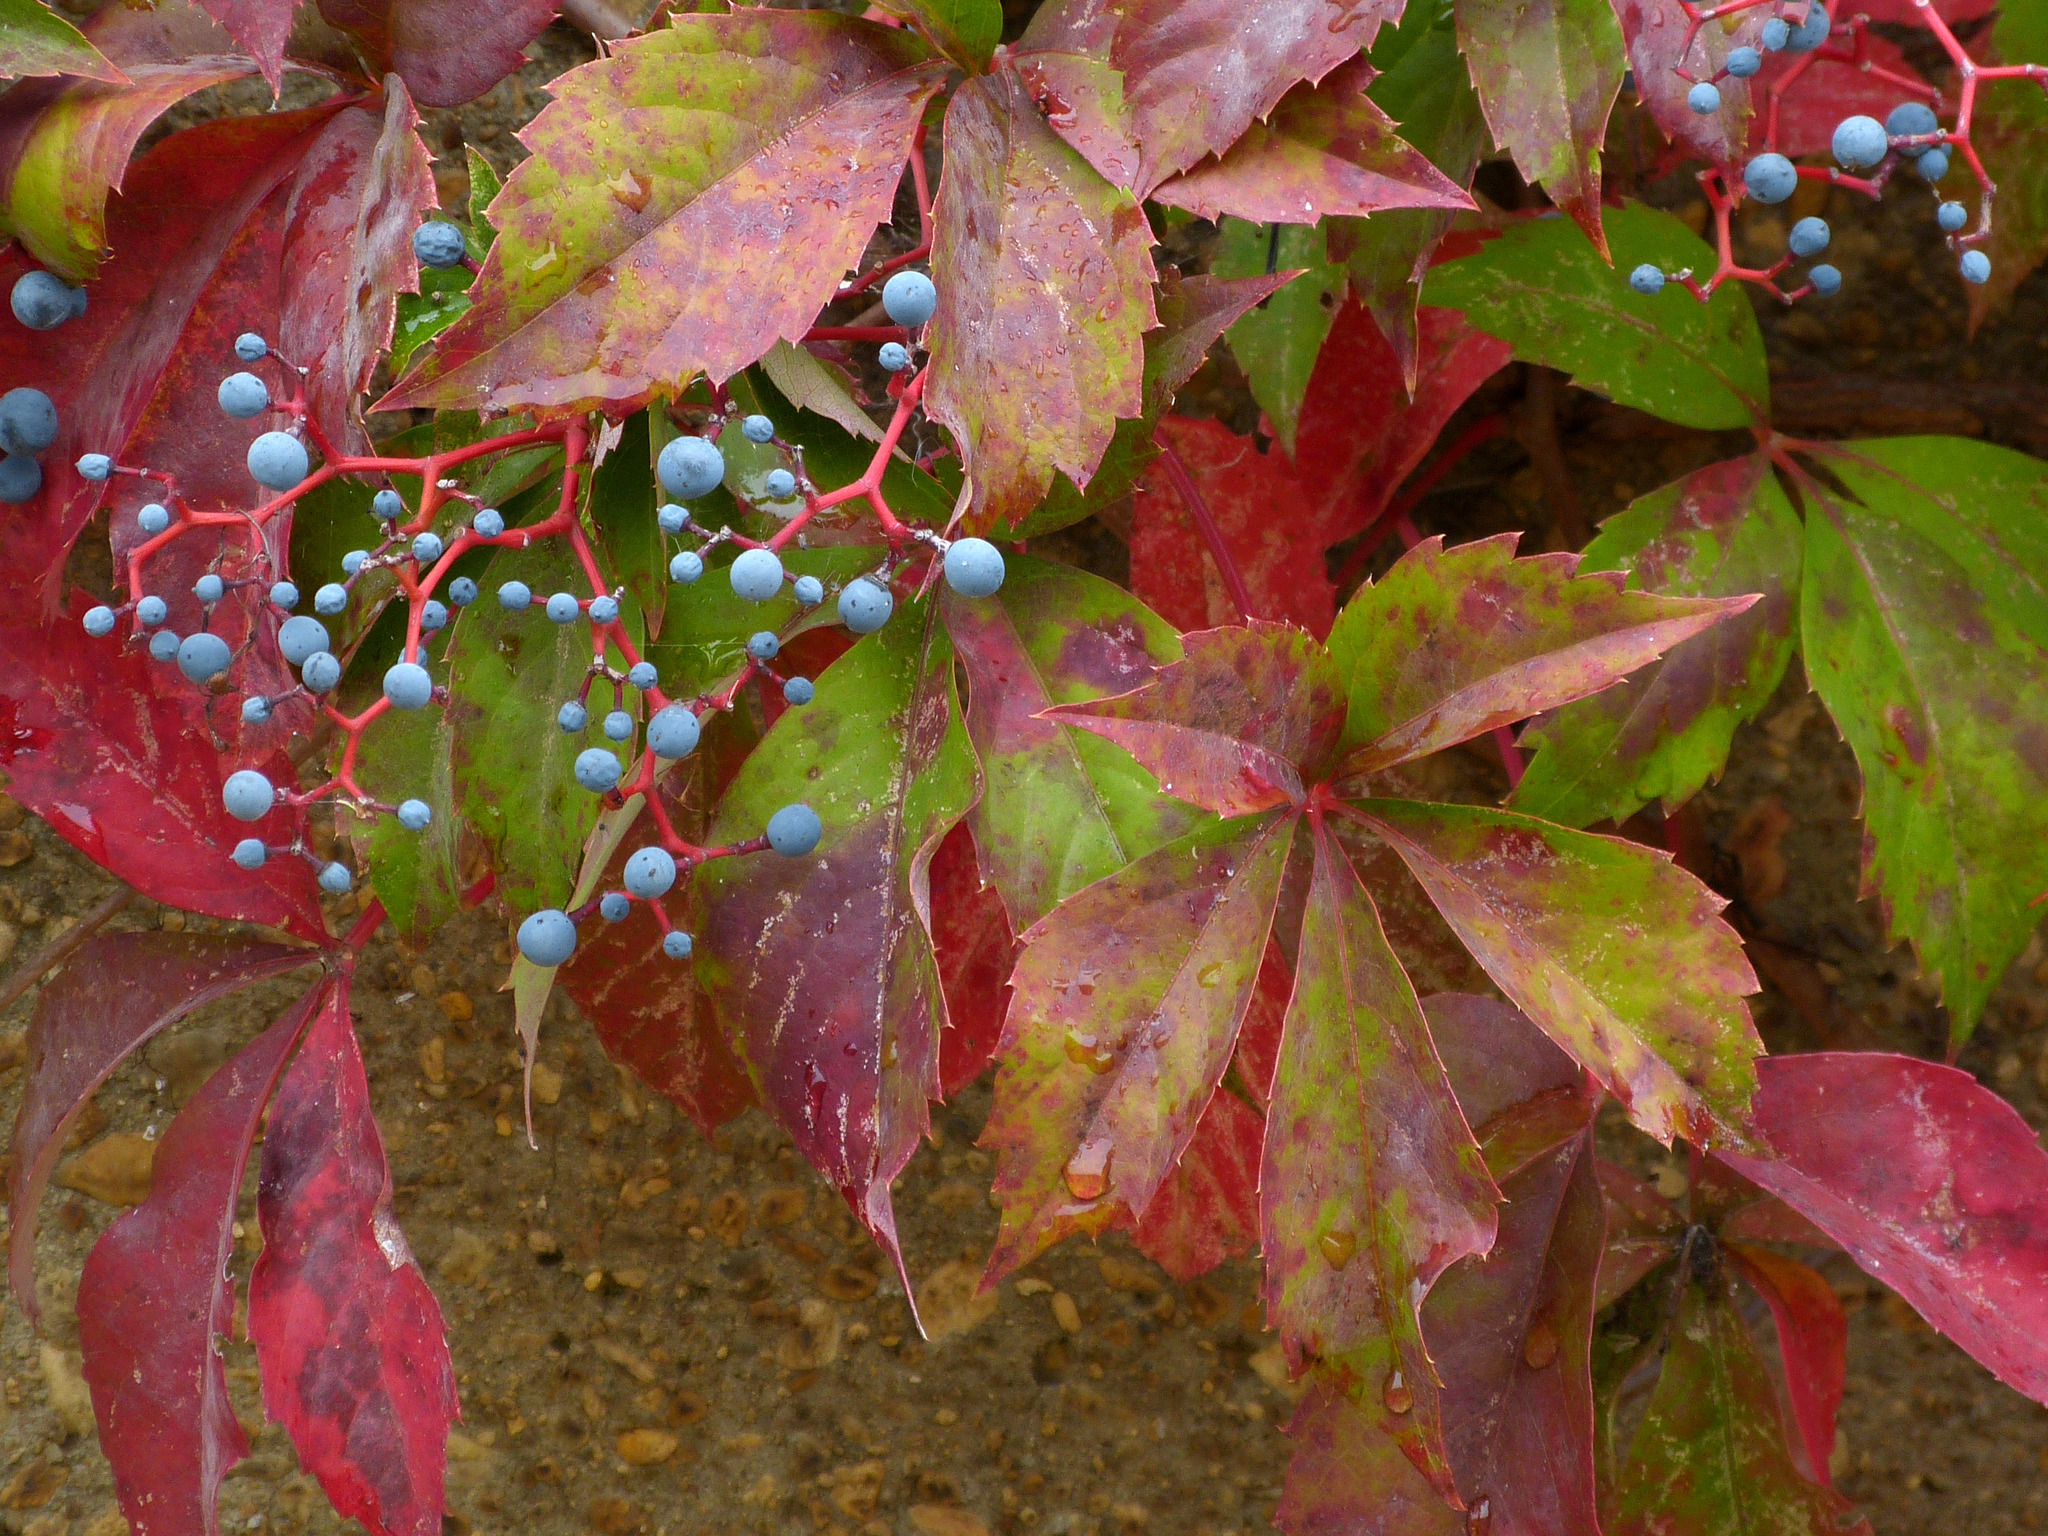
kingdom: Plantae
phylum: Tracheophyta
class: Magnoliopsida
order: Vitales
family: Vitaceae
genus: Parthenocissus
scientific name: Parthenocissus quinquefolia
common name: Virginia-creeper
